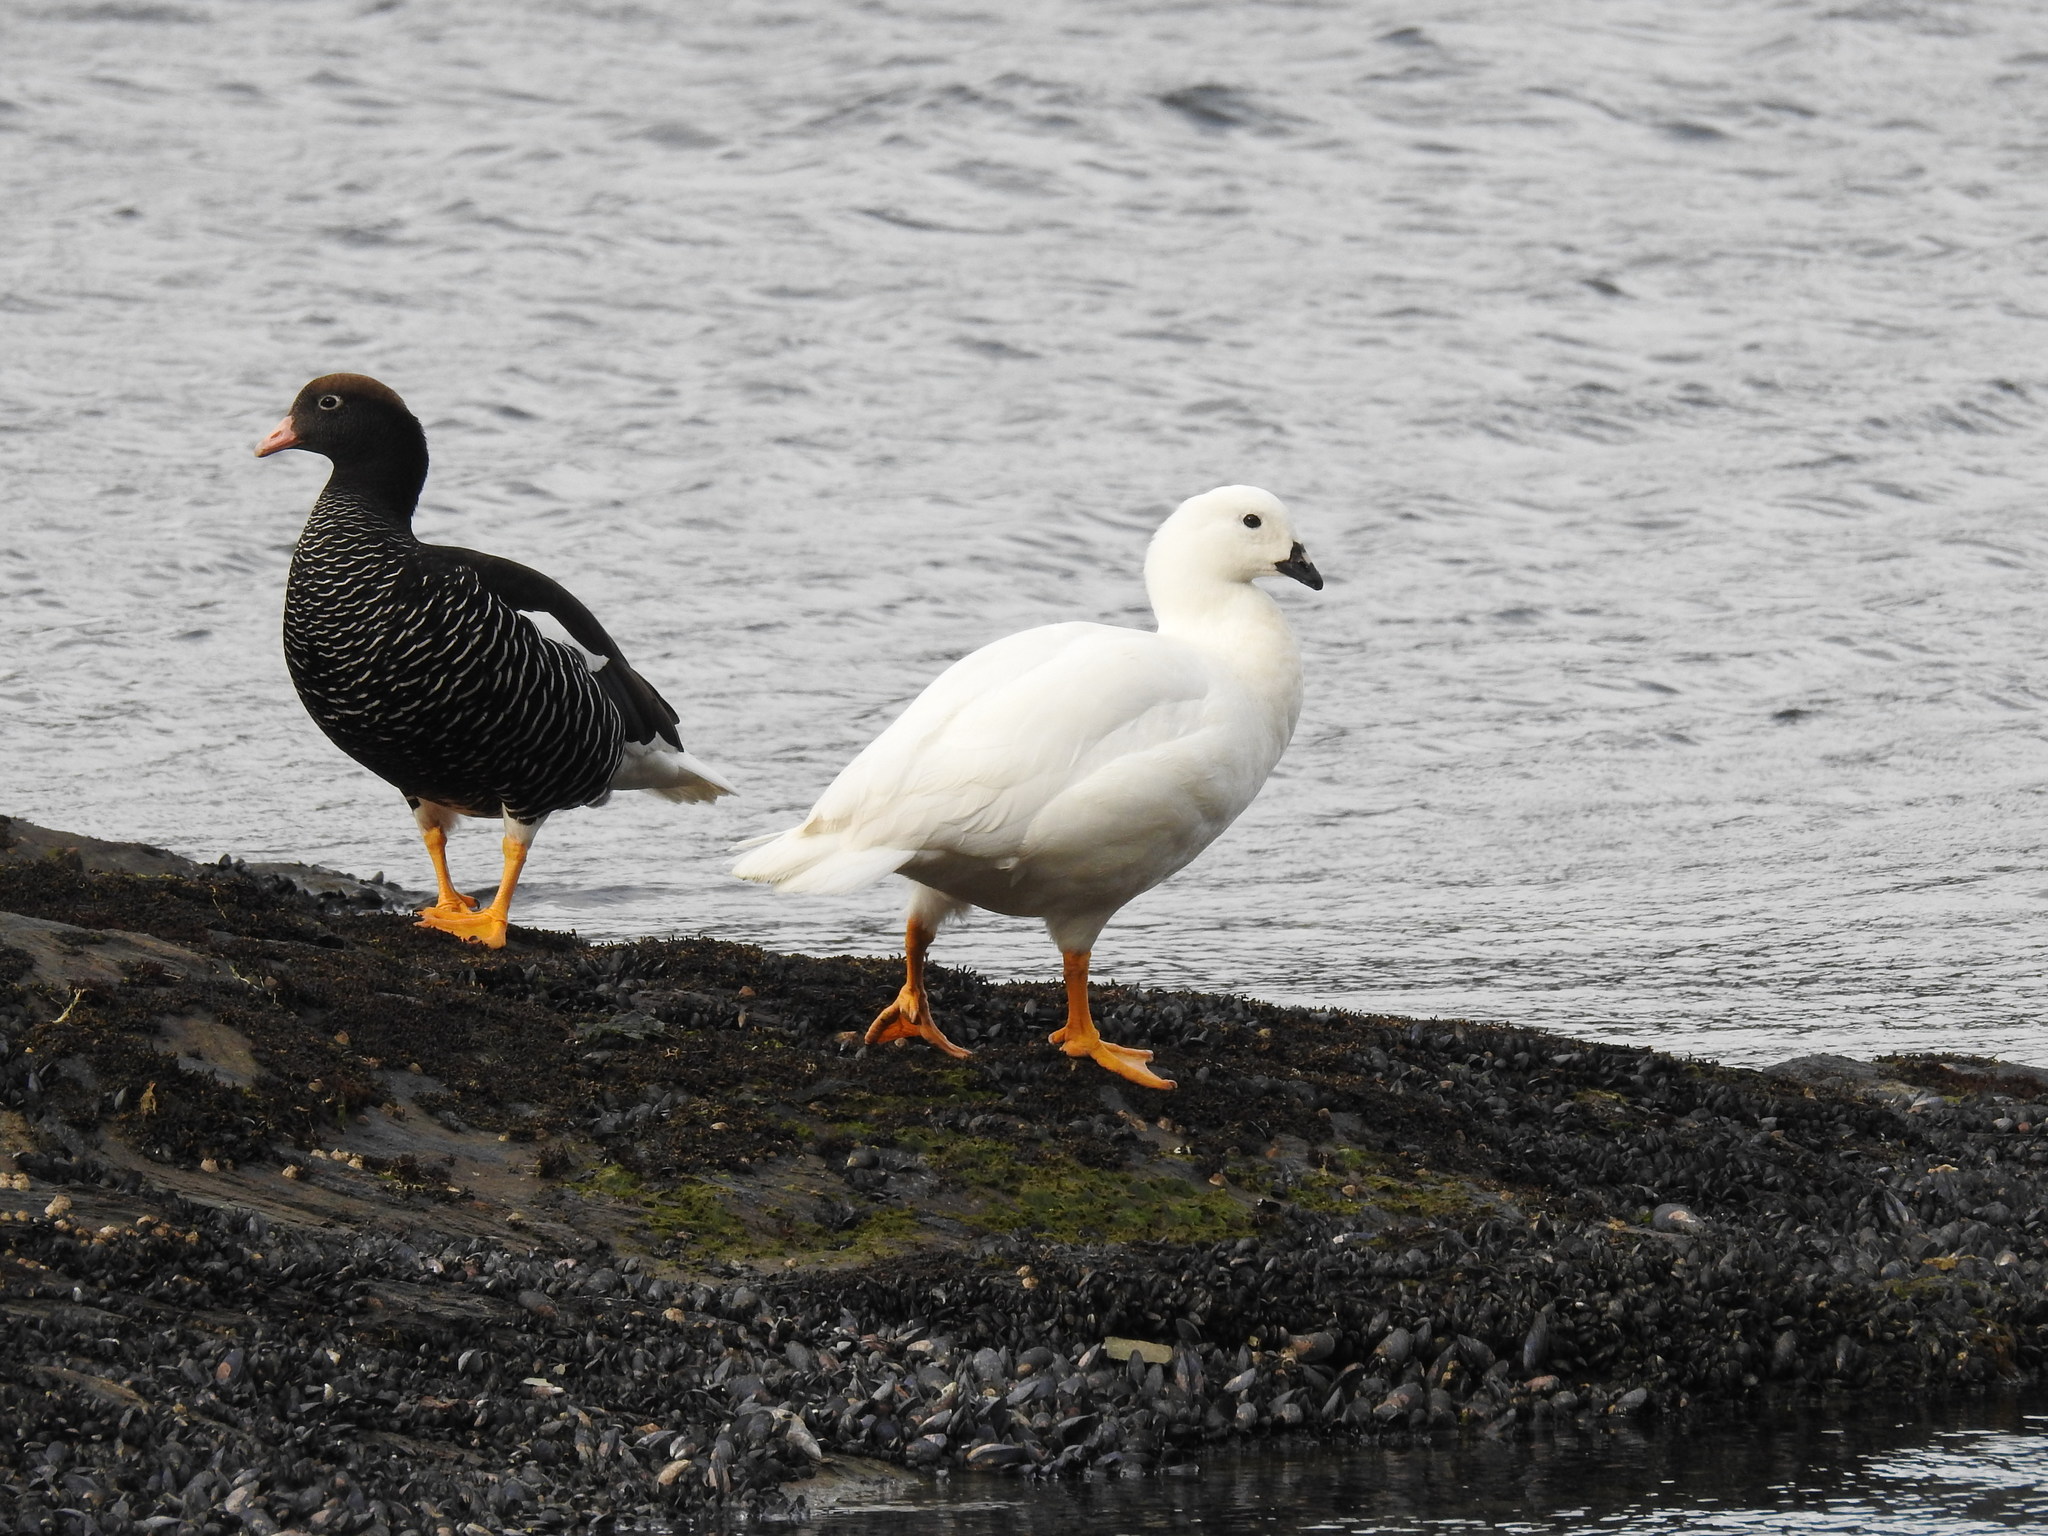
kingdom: Animalia
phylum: Chordata
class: Aves
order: Anseriformes
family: Anatidae
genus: Chloephaga
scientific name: Chloephaga hybrida
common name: Kelp goose
